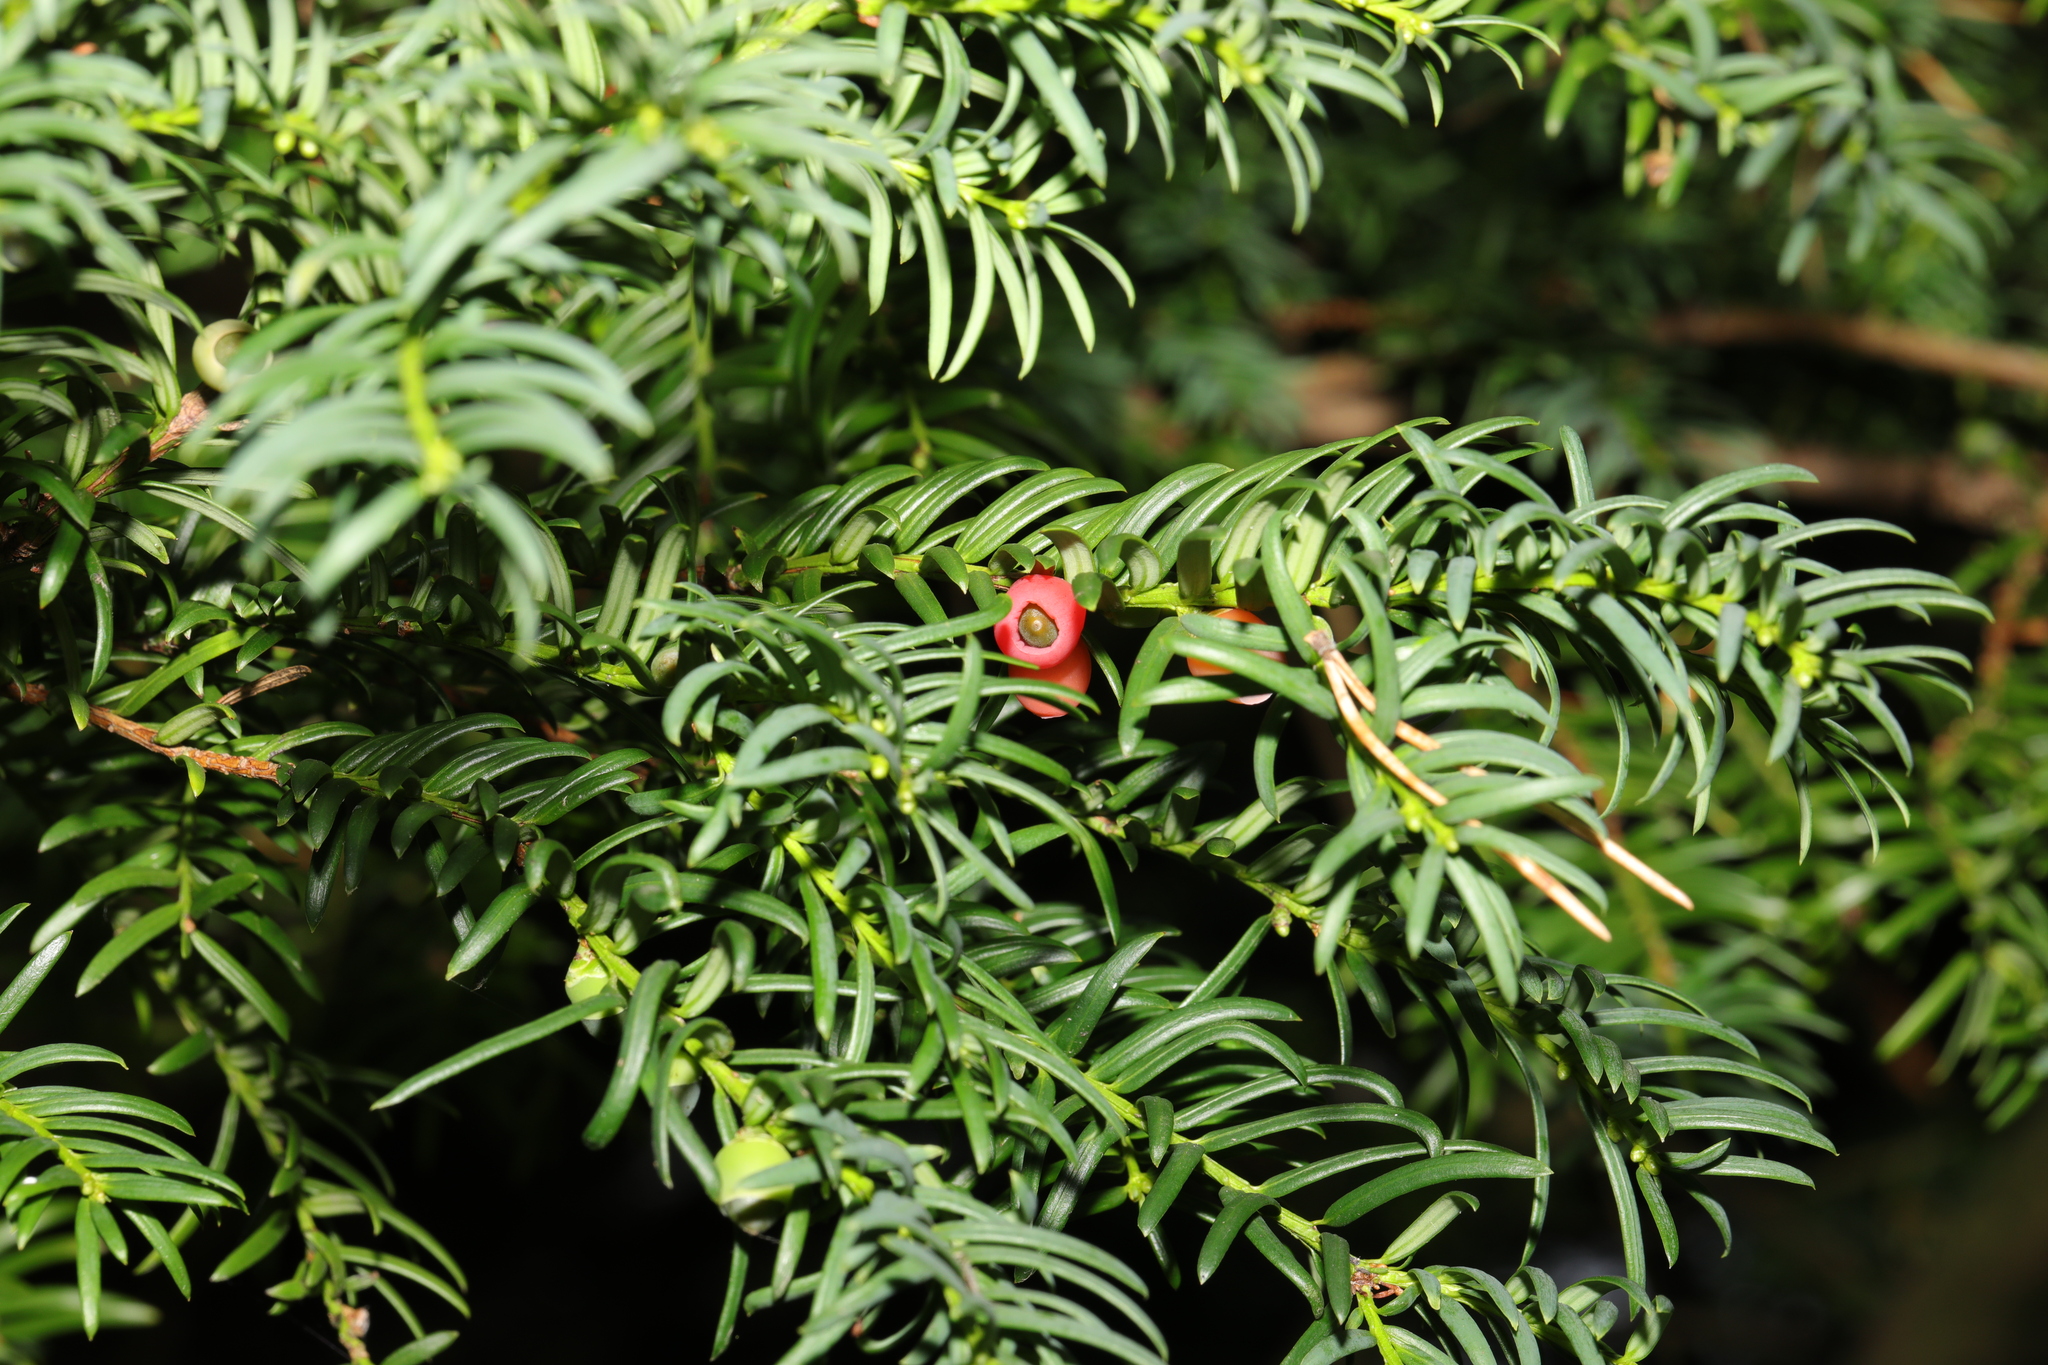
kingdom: Plantae
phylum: Tracheophyta
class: Pinopsida
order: Pinales
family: Taxaceae
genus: Taxus
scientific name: Taxus baccata
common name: Yew
